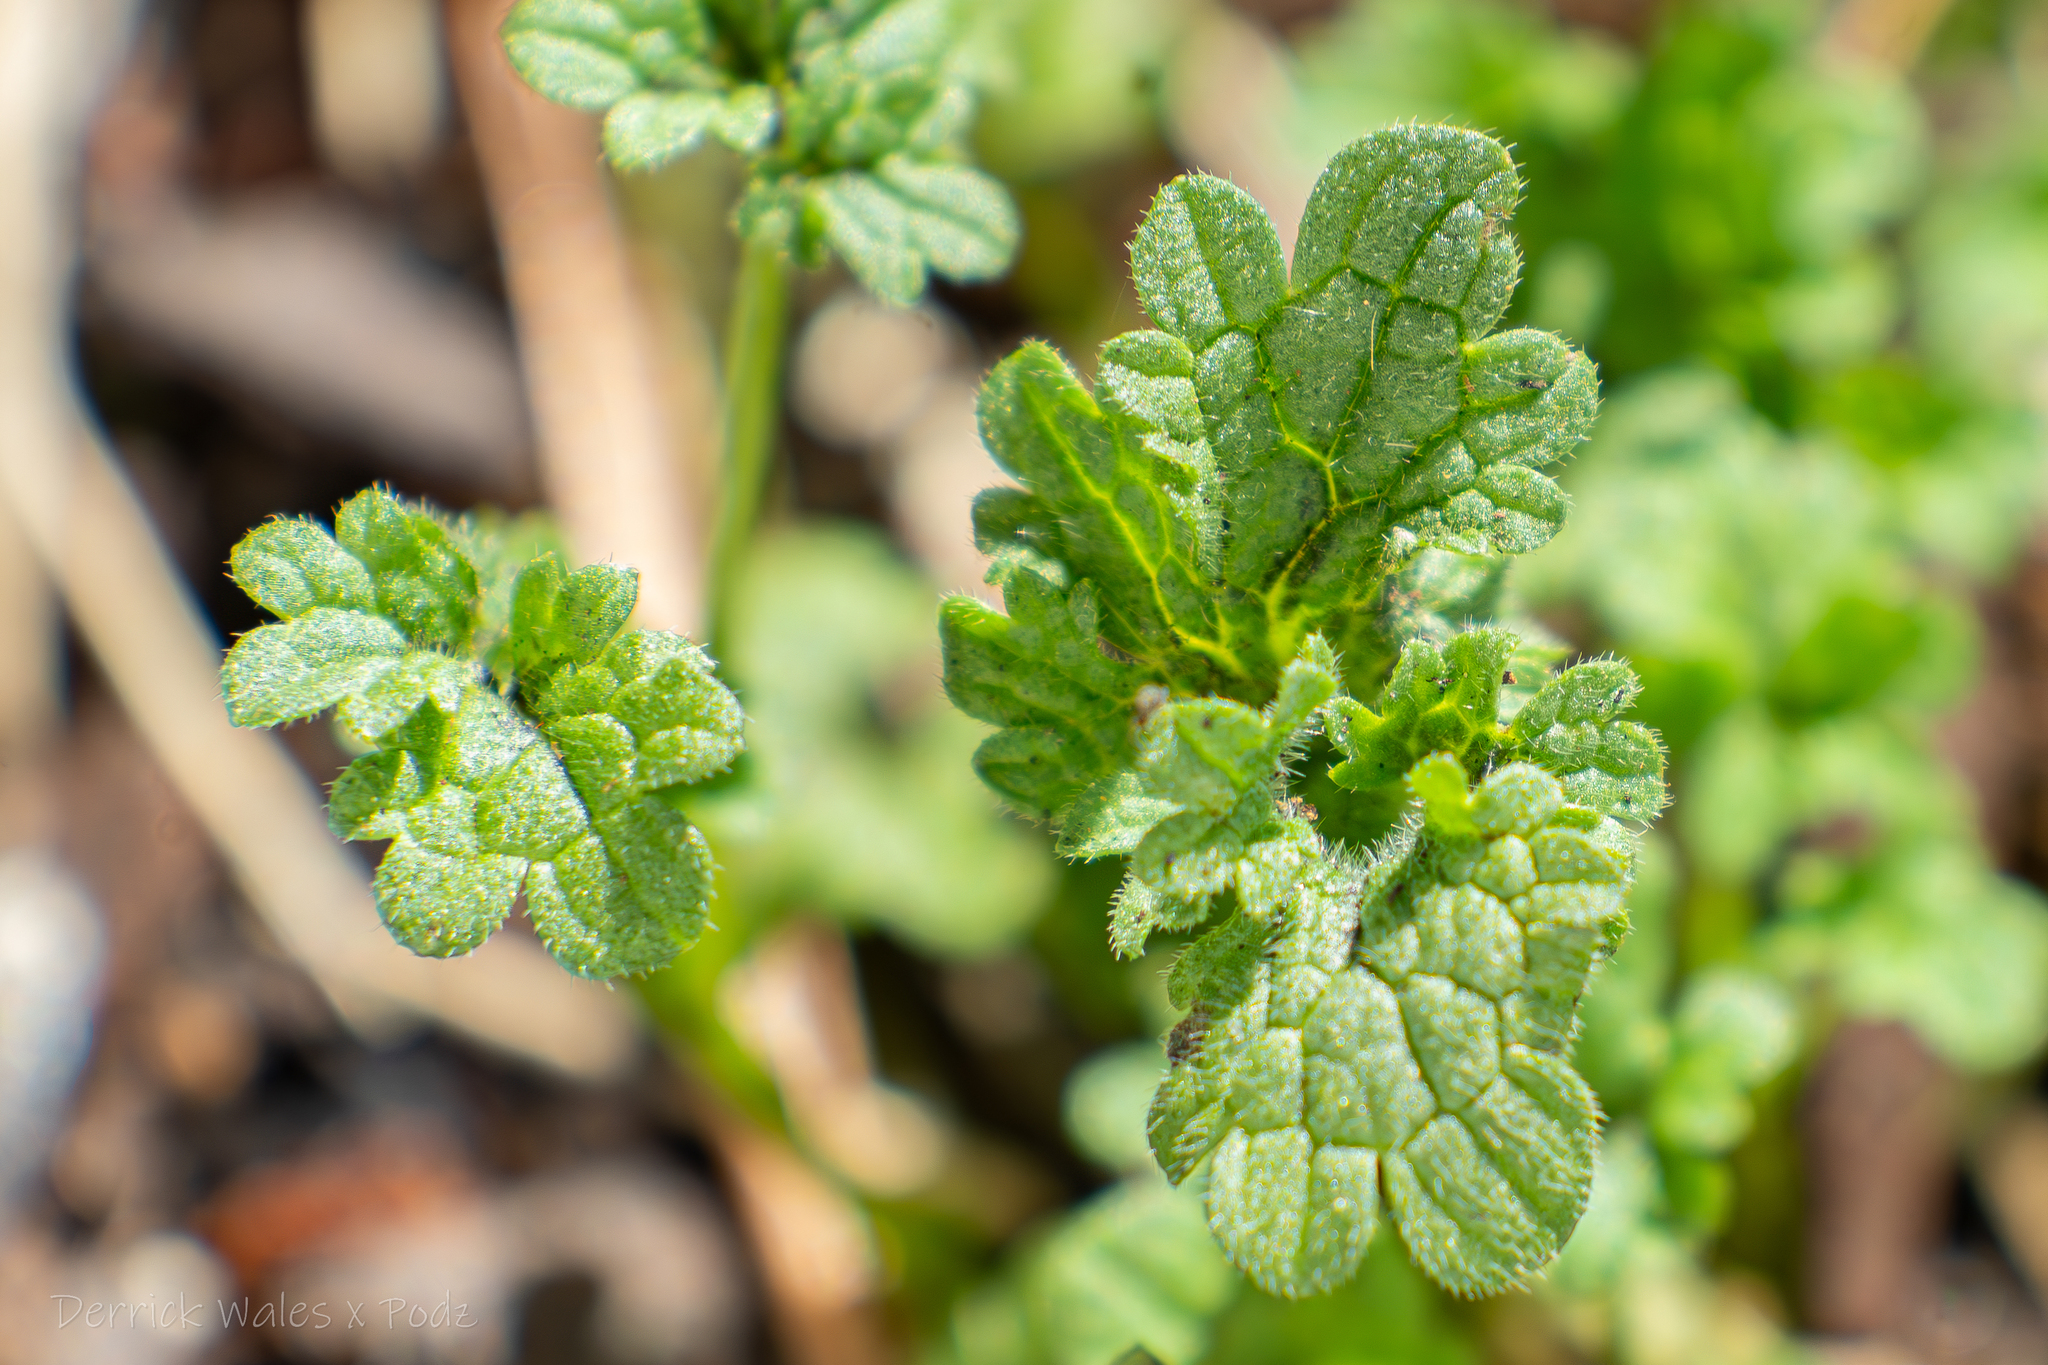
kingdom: Plantae
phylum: Tracheophyta
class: Magnoliopsida
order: Lamiales
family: Lamiaceae
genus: Lamium
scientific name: Lamium amplexicaule
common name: Henbit dead-nettle
